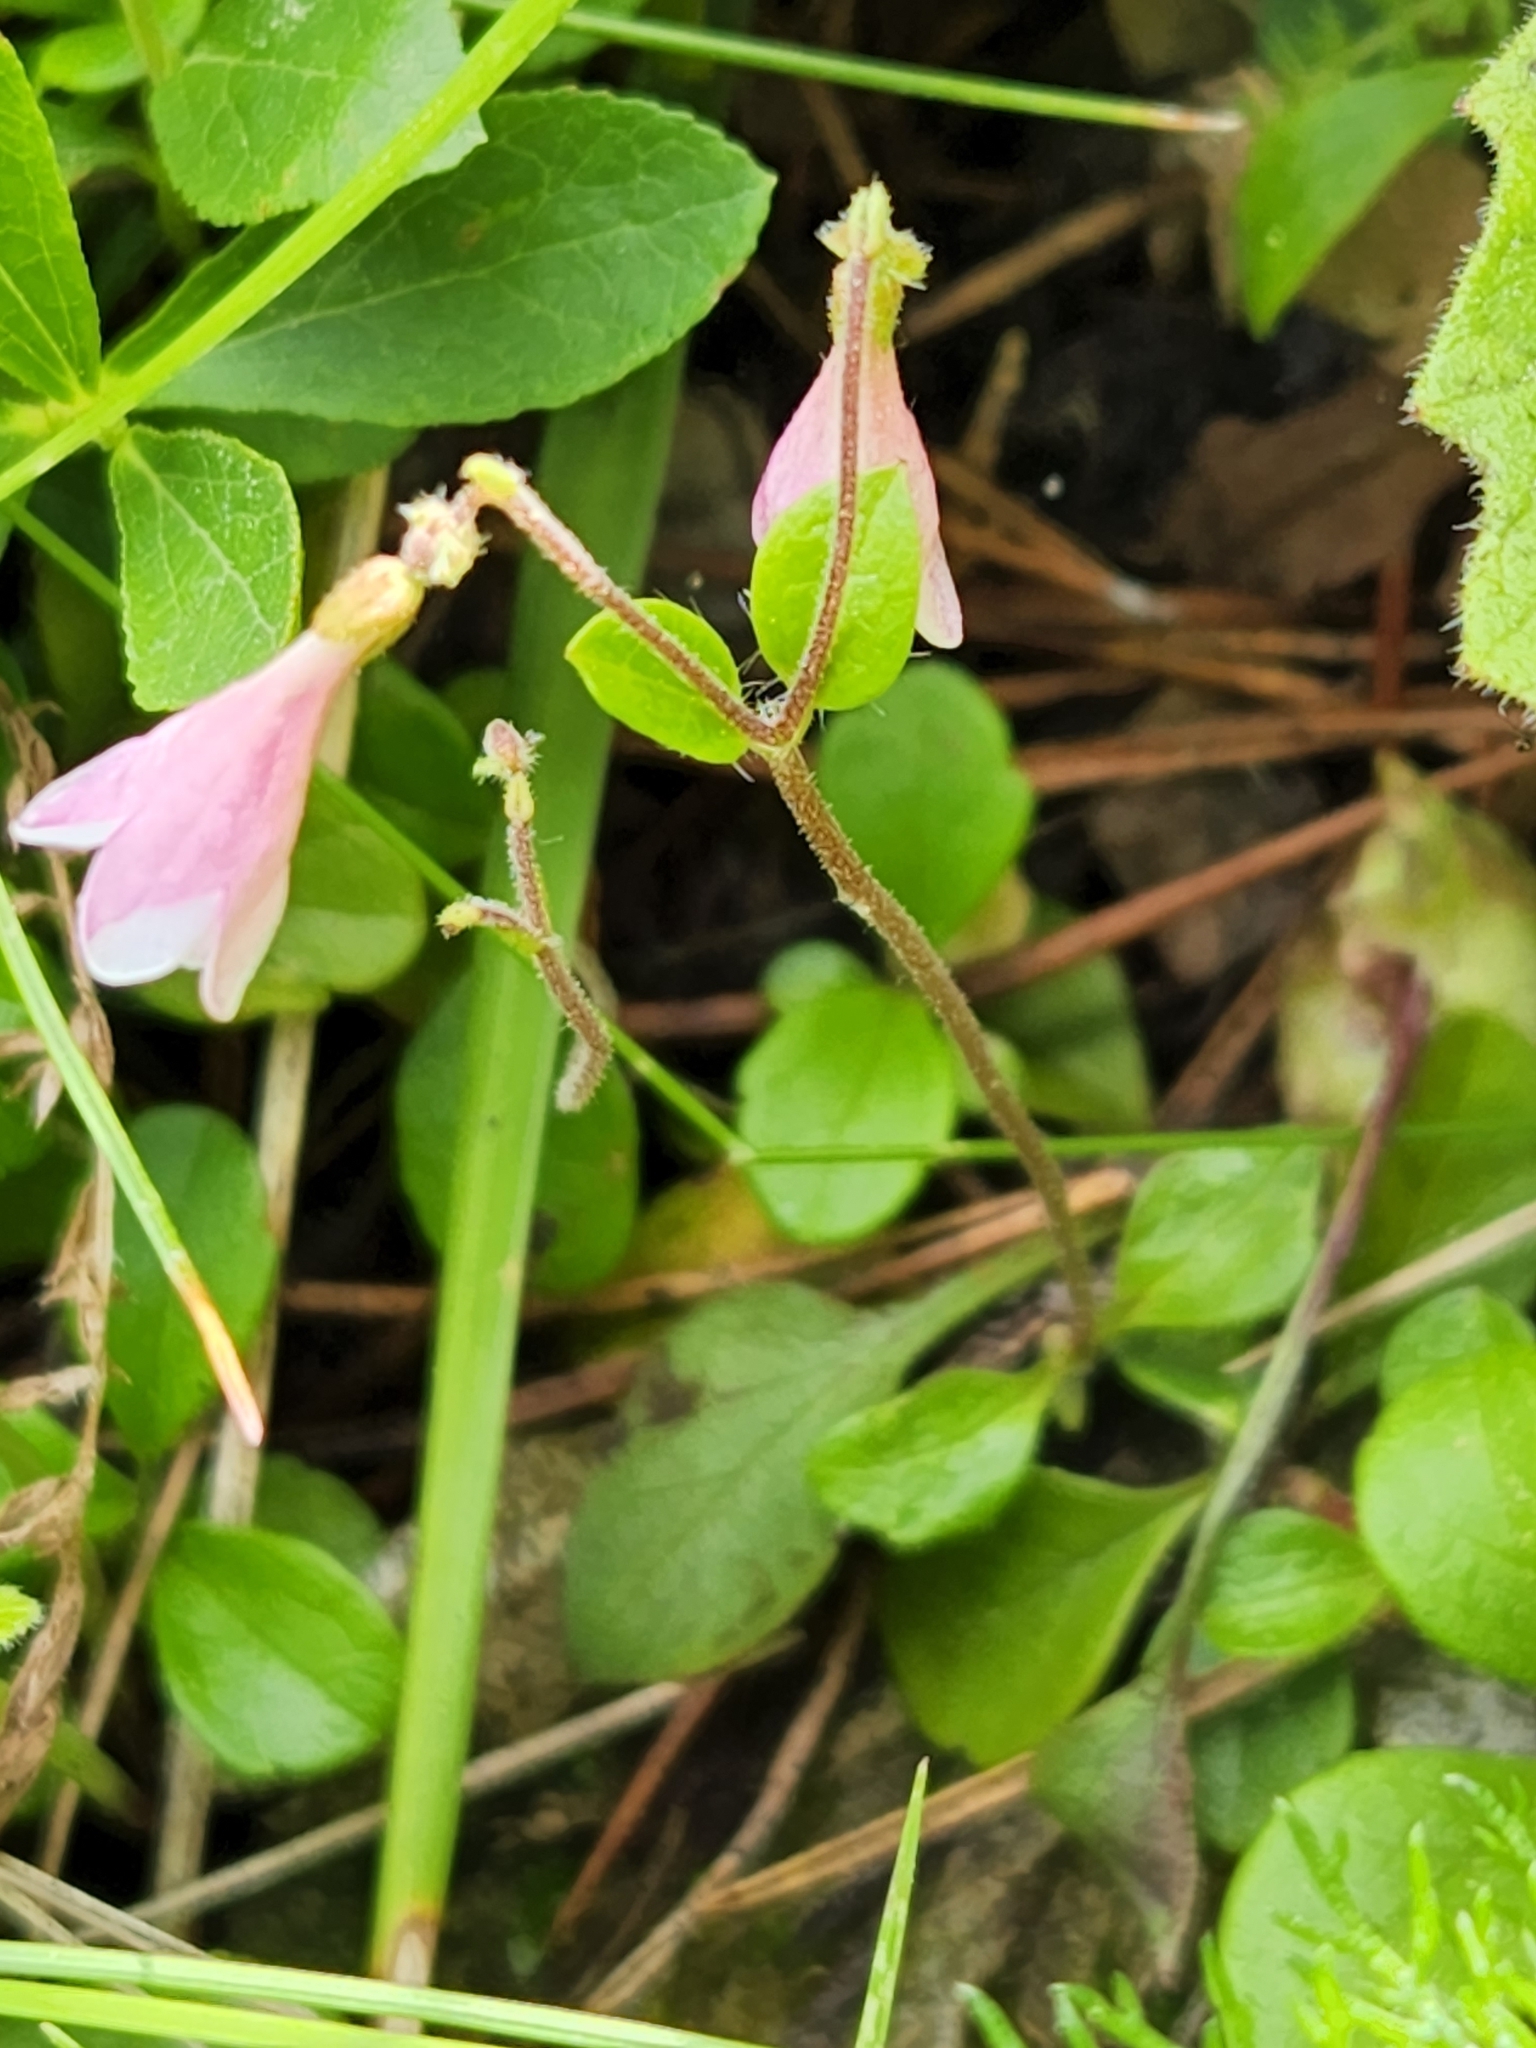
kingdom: Plantae
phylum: Tracheophyta
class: Magnoliopsida
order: Dipsacales
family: Caprifoliaceae
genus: Linnaea
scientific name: Linnaea borealis
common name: Twinflower
